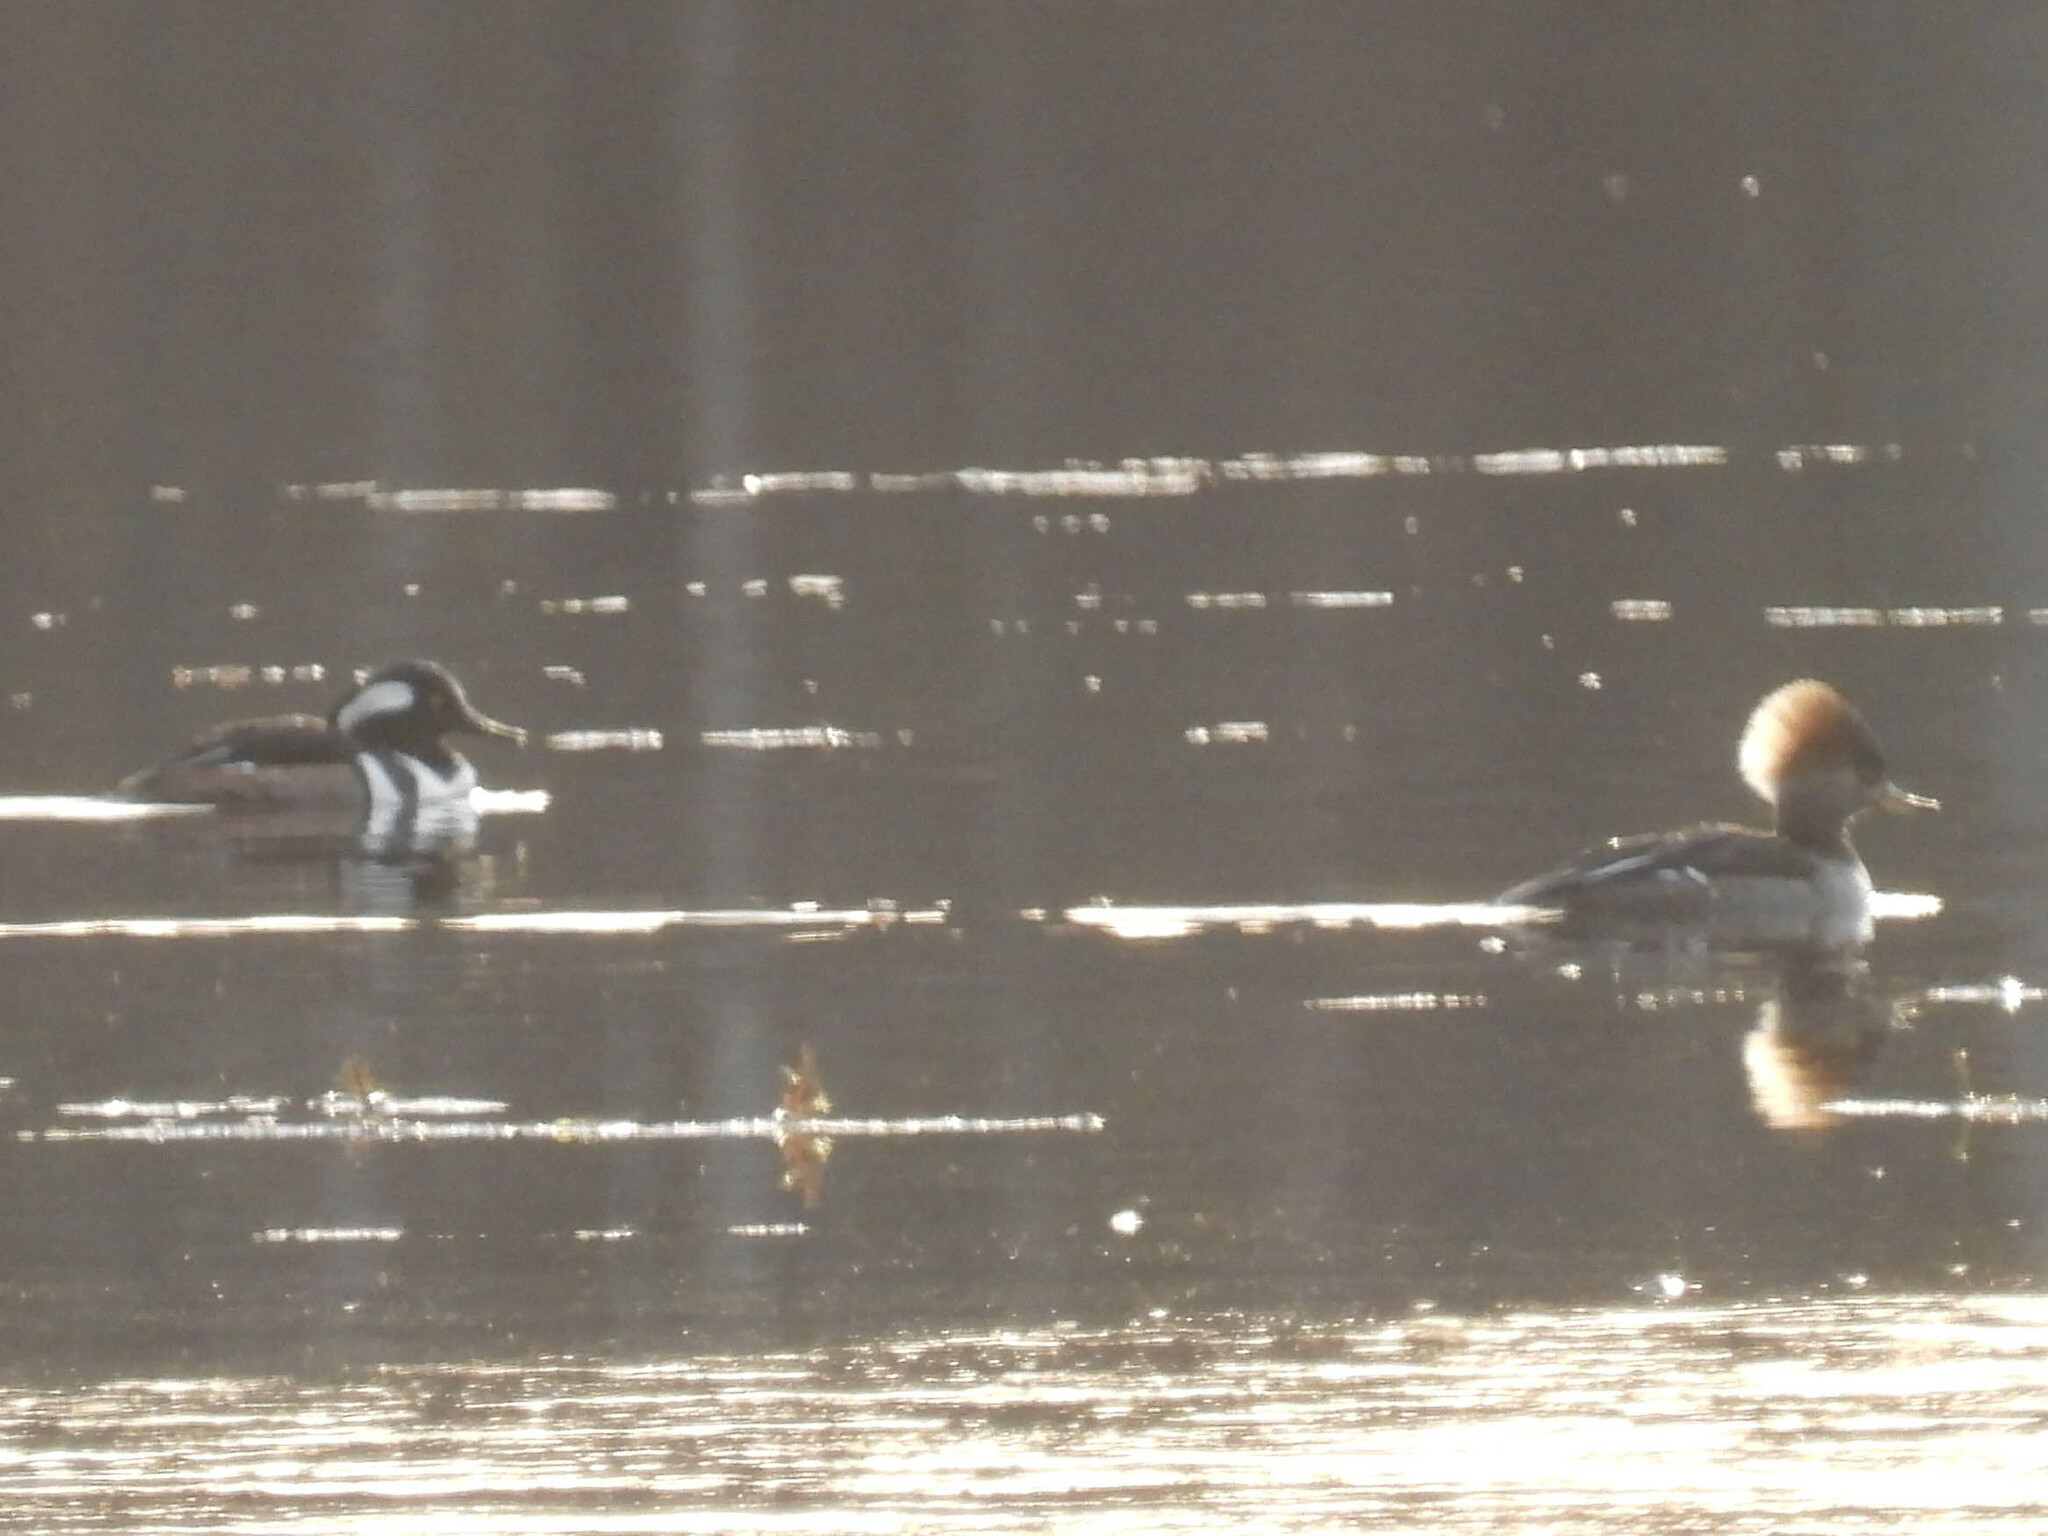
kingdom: Animalia
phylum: Chordata
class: Aves
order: Anseriformes
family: Anatidae
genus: Lophodytes
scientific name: Lophodytes cucullatus
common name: Hooded merganser
